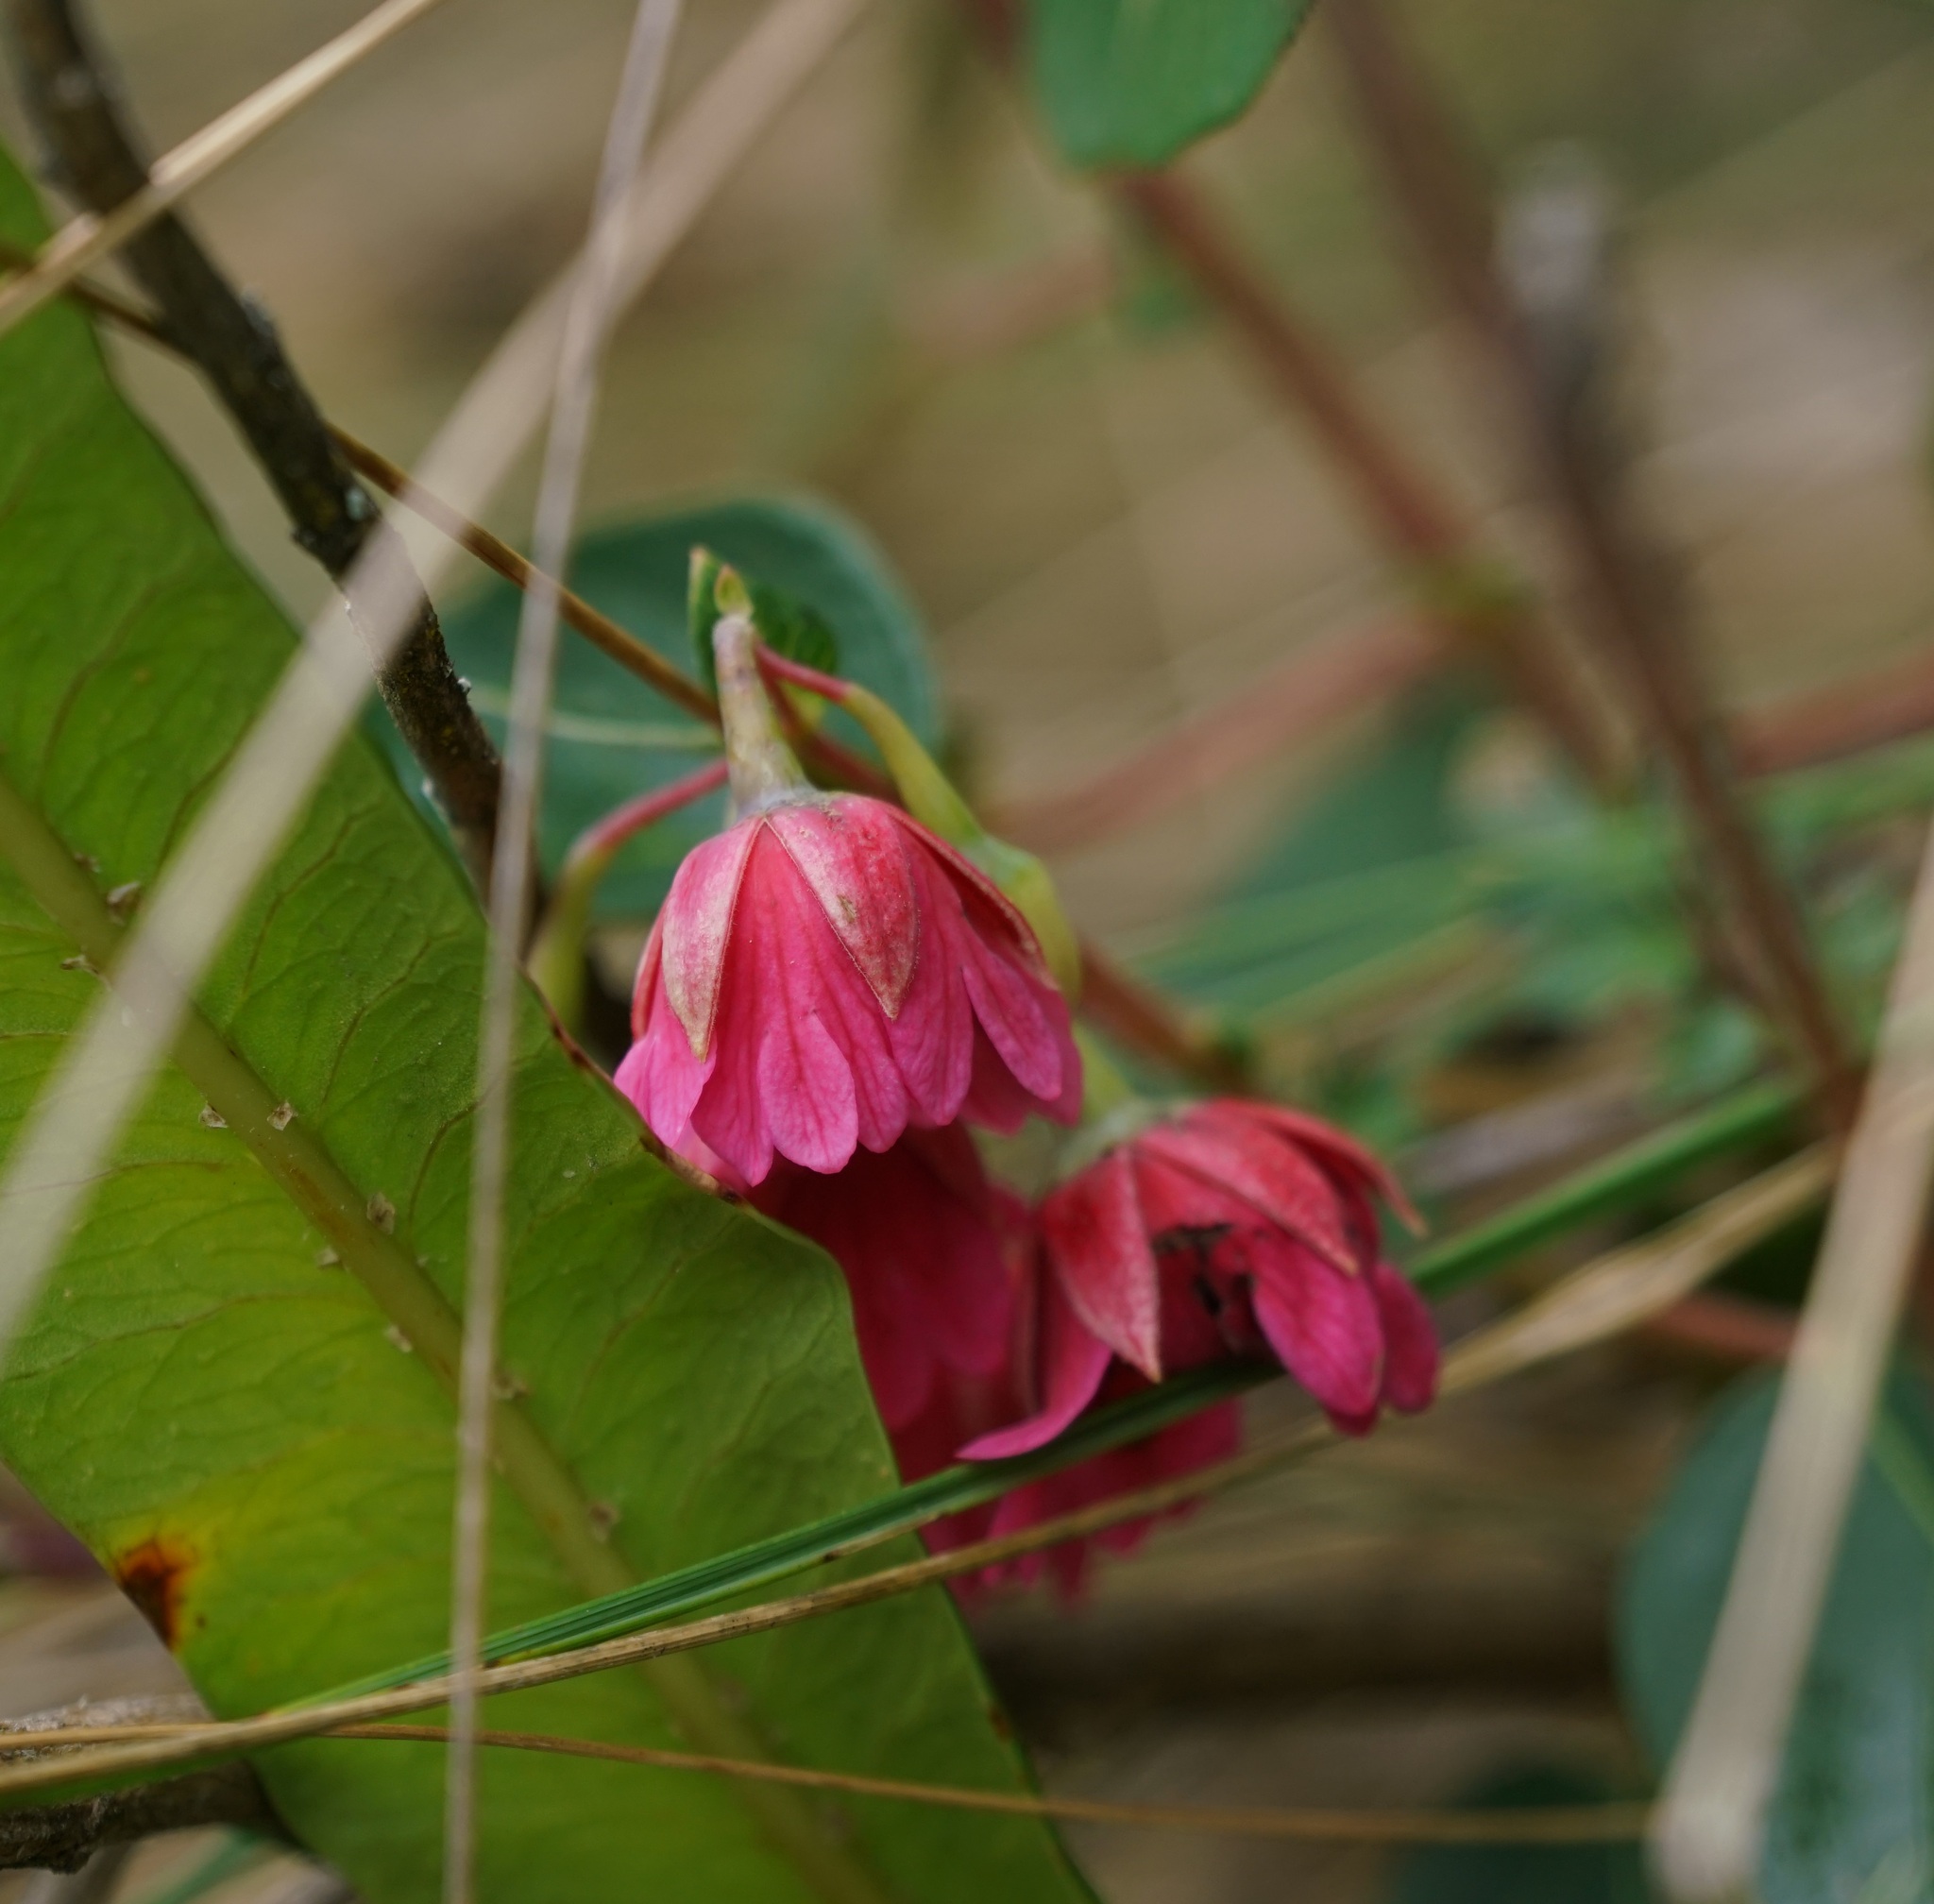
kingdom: Plantae
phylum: Tracheophyta
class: Magnoliopsida
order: Oxalidales
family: Elaeocarpaceae
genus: Vallea
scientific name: Vallea stipularis
